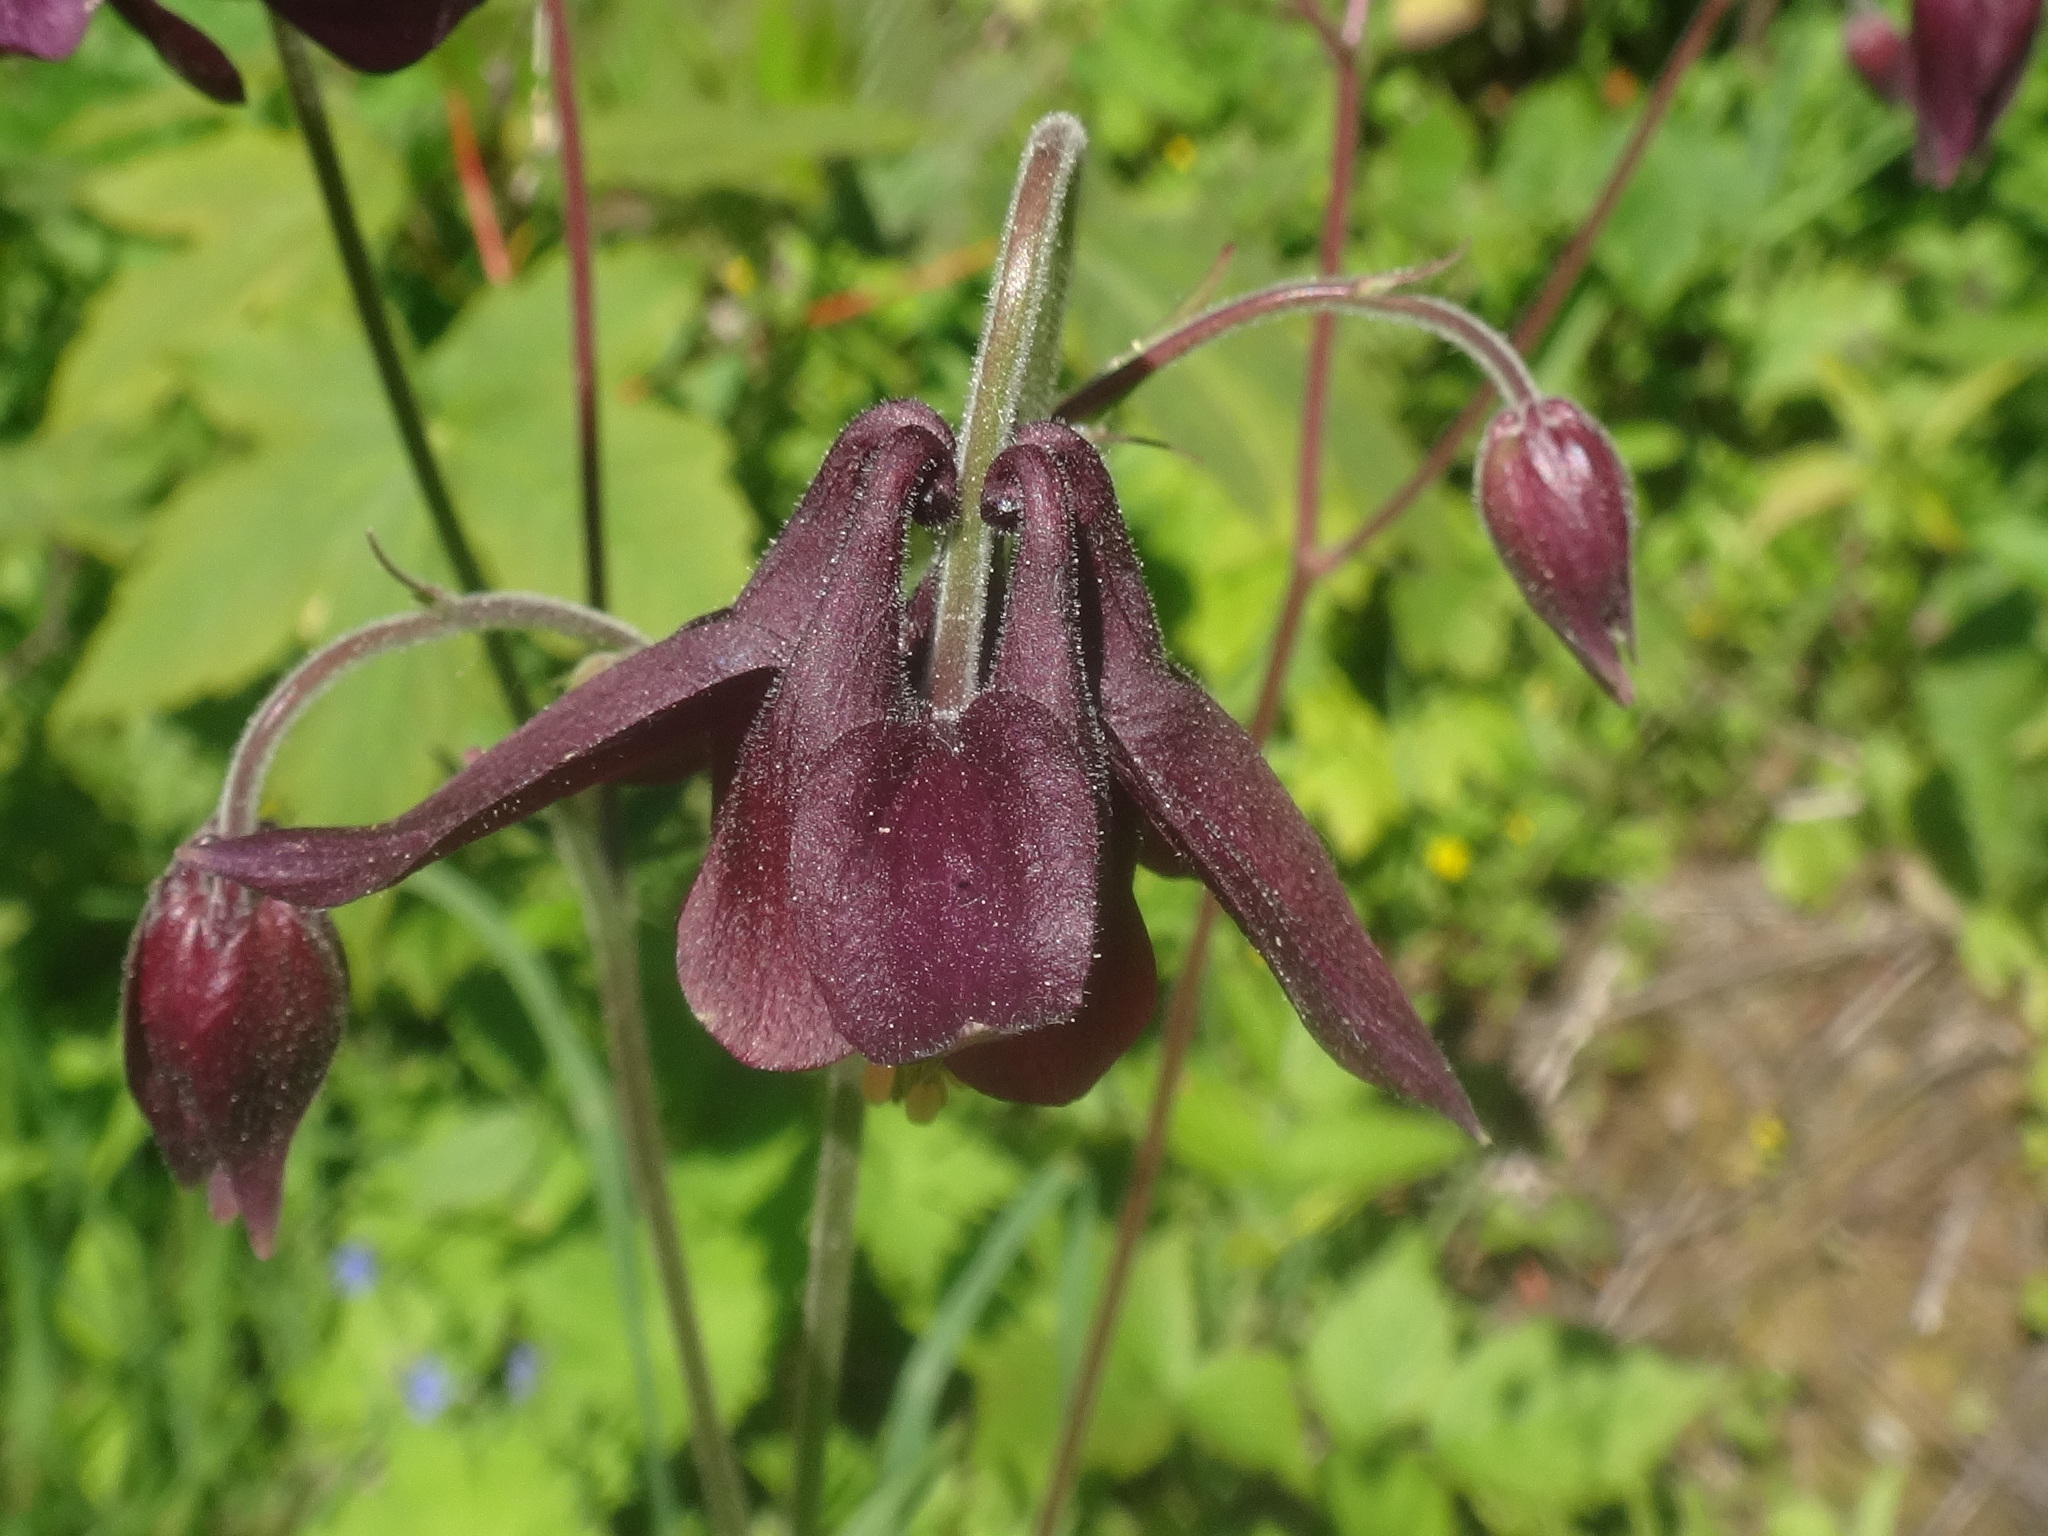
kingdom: Plantae
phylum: Tracheophyta
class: Magnoliopsida
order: Ranunculales
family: Ranunculaceae
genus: Aquilegia
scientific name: Aquilegia atrata
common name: Dark columbine
